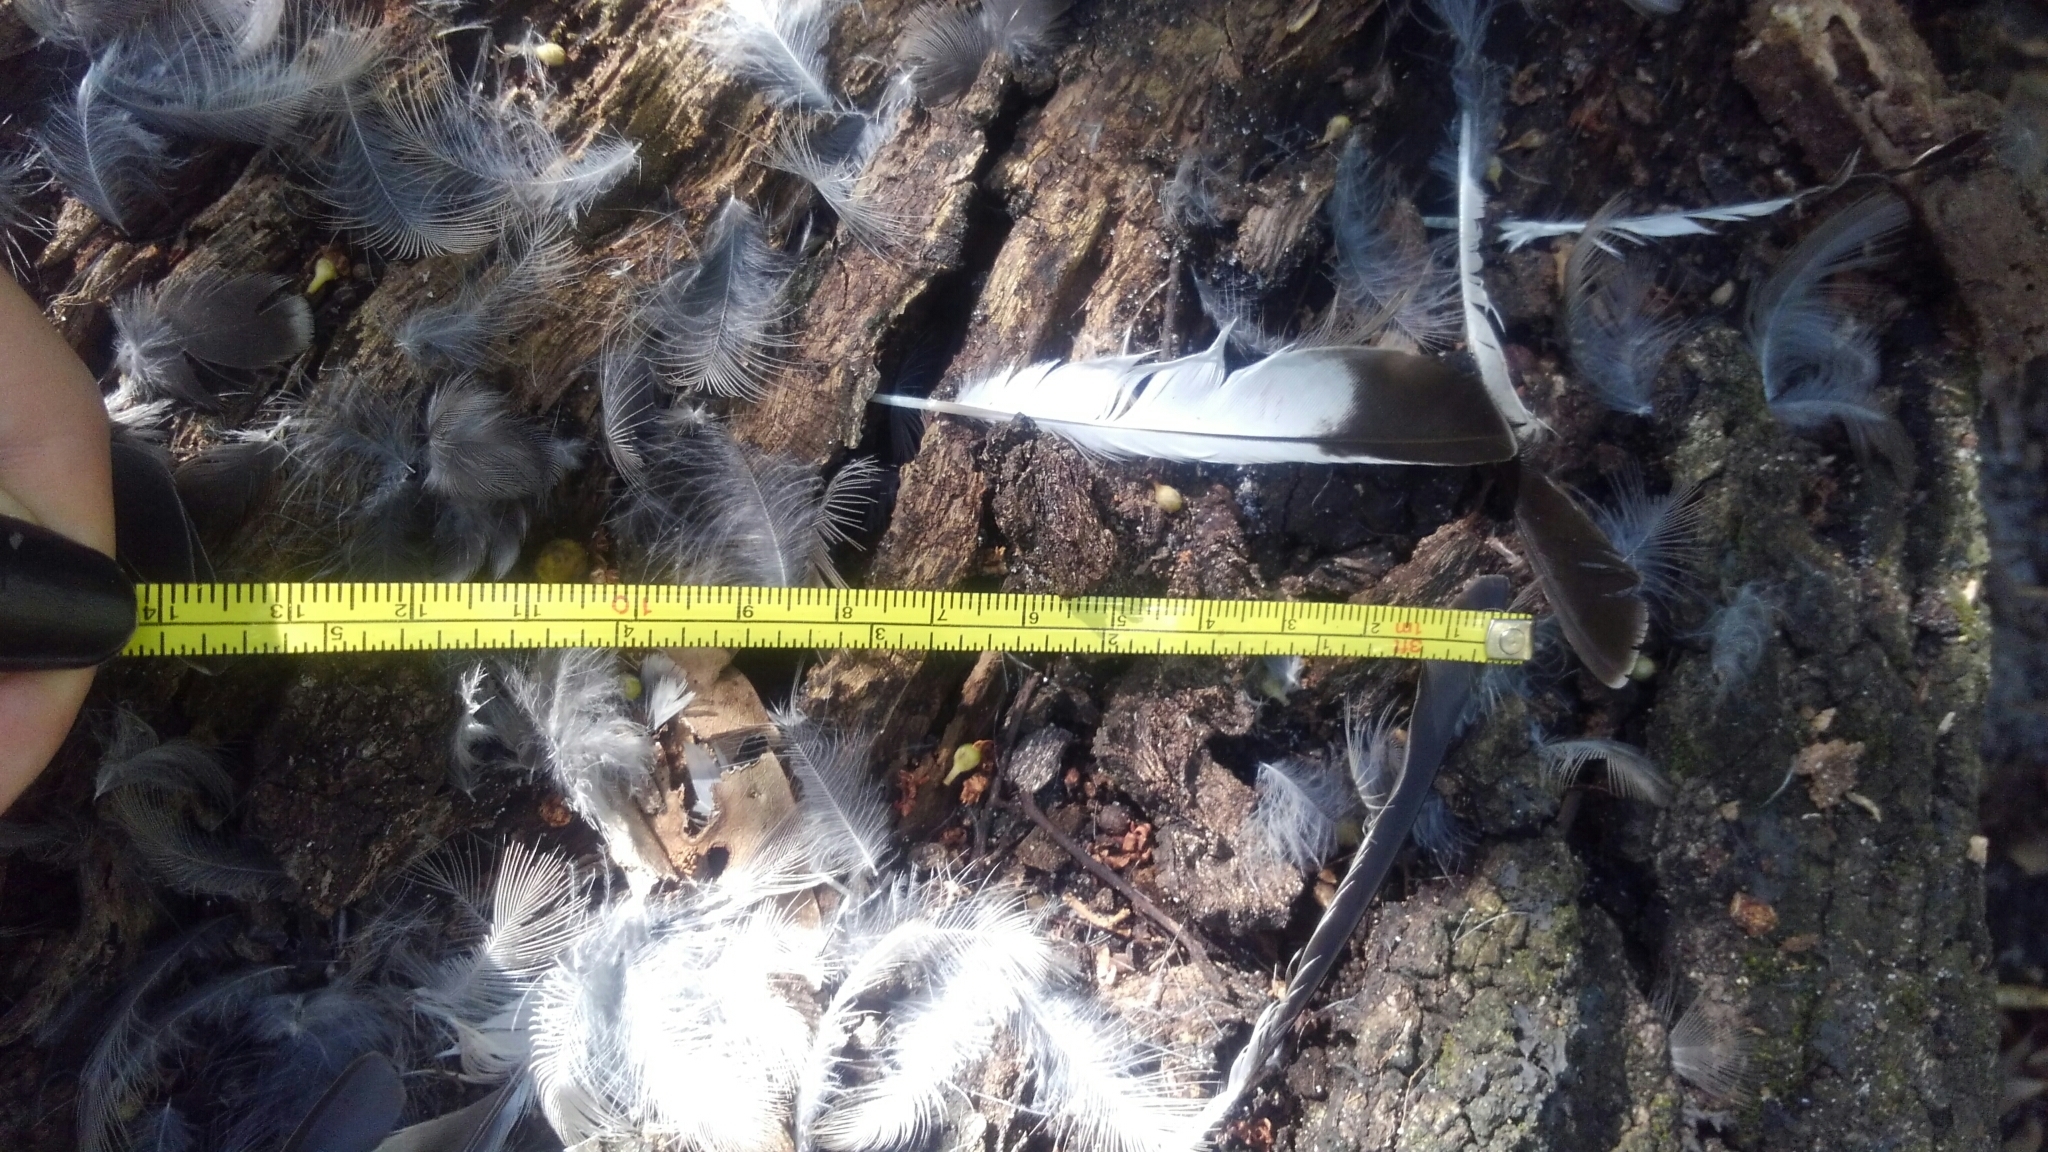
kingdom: Animalia
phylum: Chordata
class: Aves
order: Passeriformes
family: Mimidae
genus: Mimus
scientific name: Mimus polyglottos
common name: Northern mockingbird
